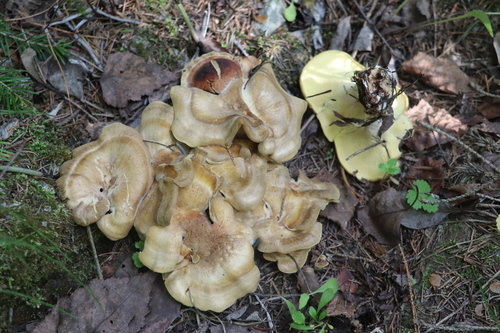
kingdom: Fungi
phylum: Basidiomycota
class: Agaricomycetes
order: Polyporales
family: Steccherinaceae
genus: Xanthoporus
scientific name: Xanthoporus syringae
